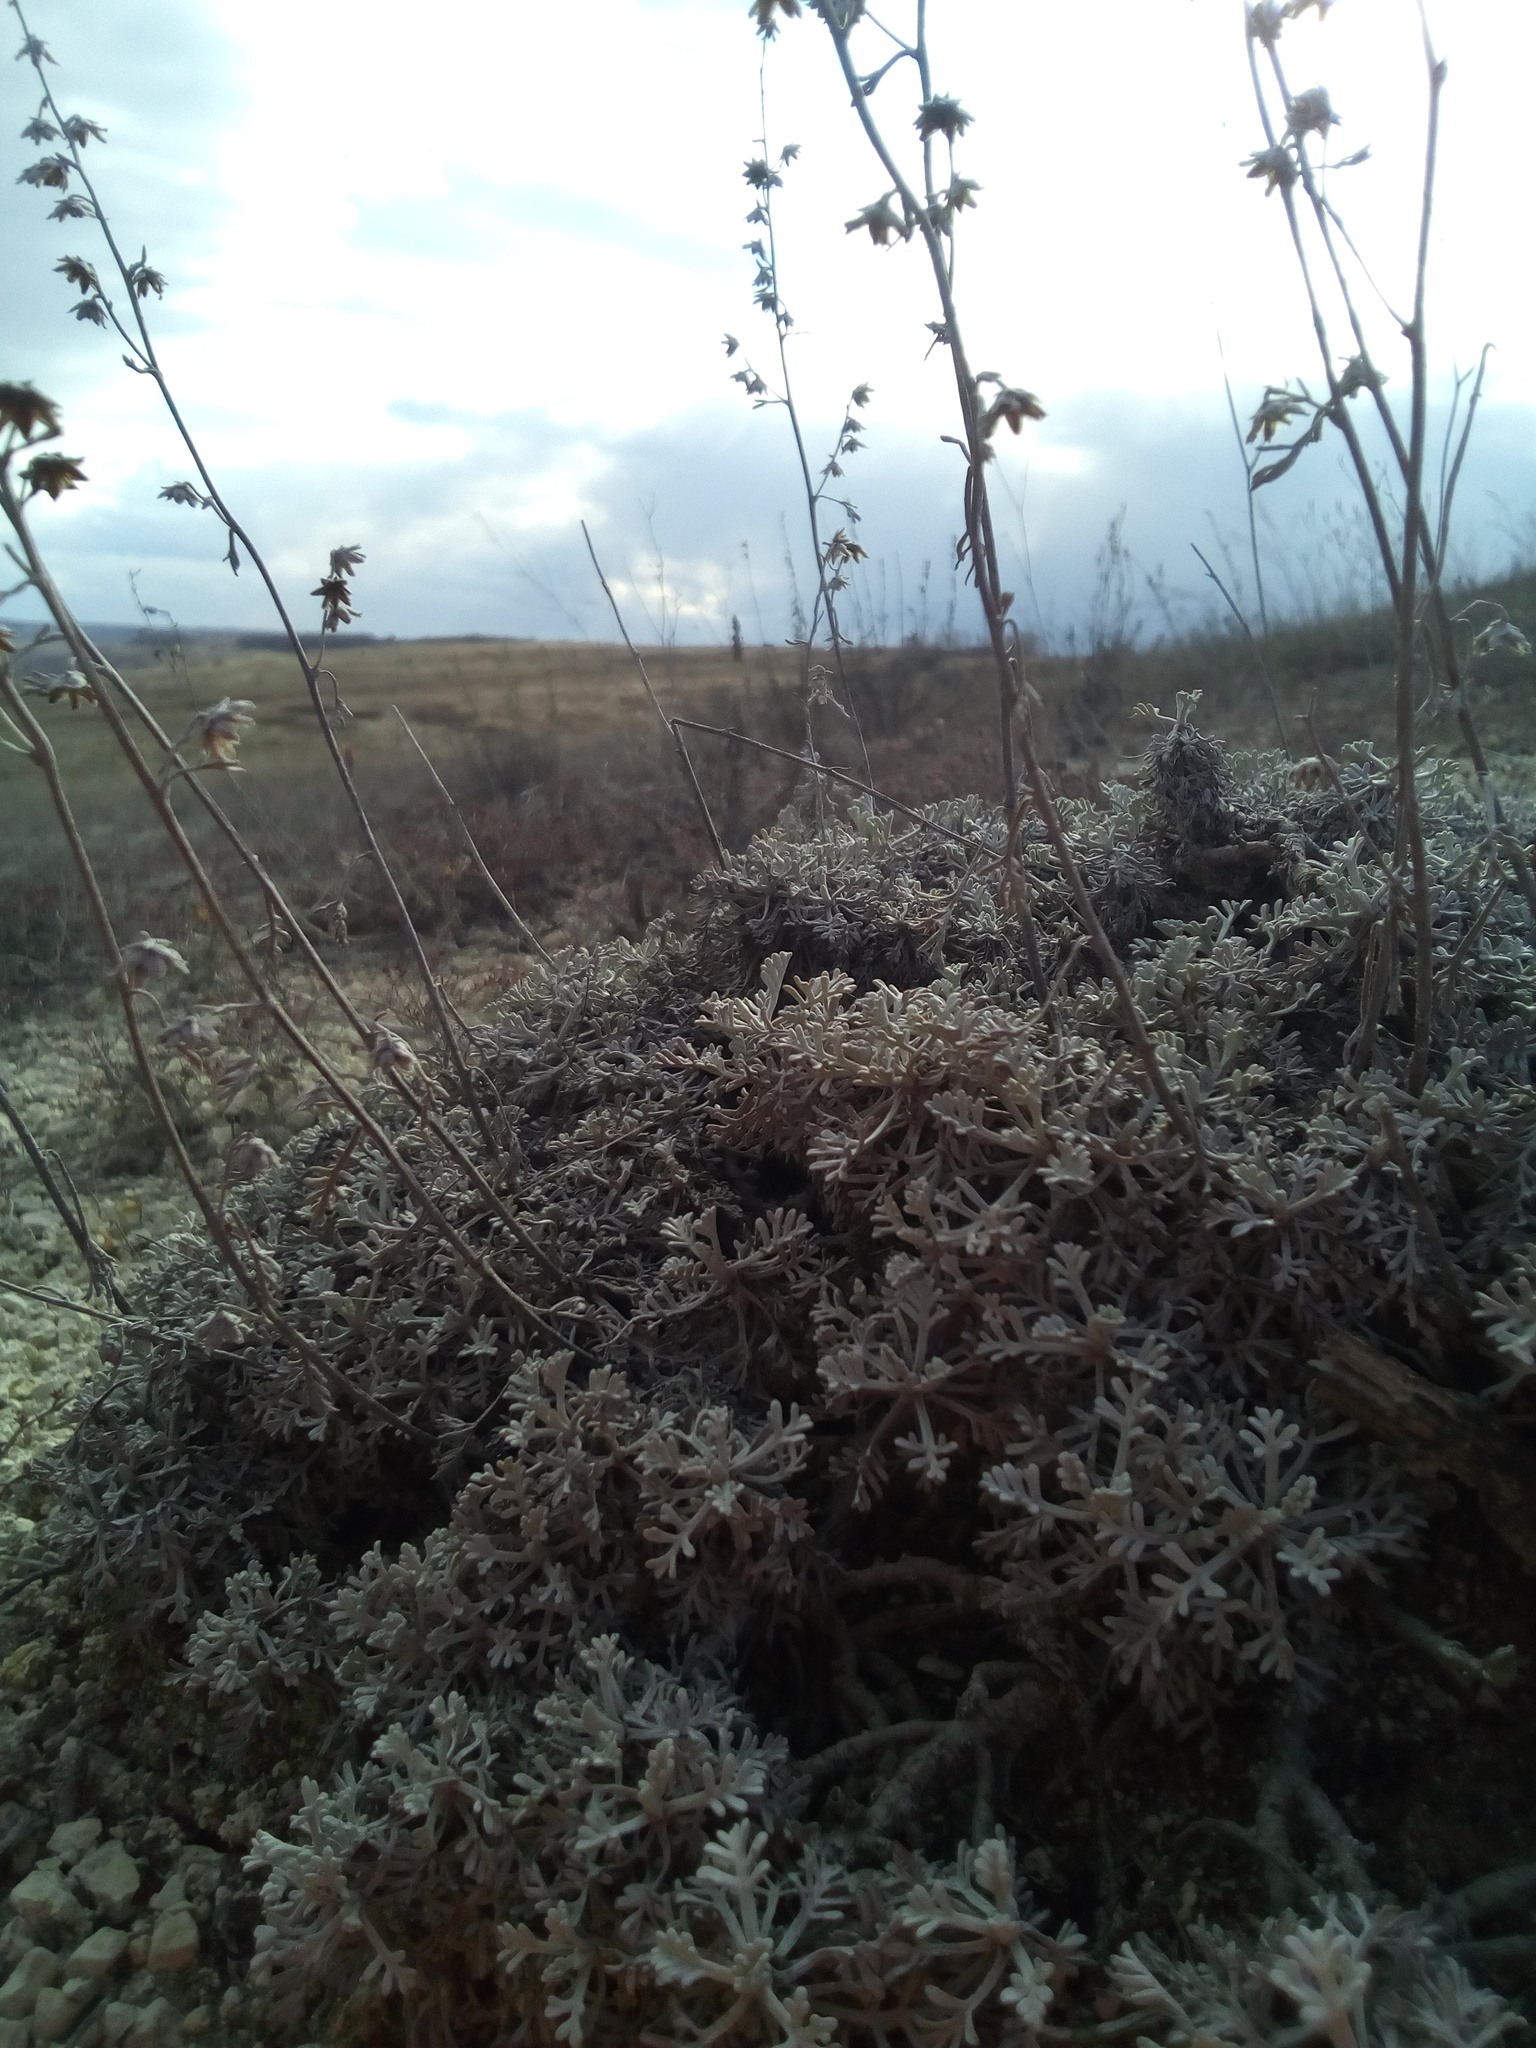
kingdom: Plantae
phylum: Tracheophyta
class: Magnoliopsida
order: Asterales
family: Asteraceae
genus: Artemisia
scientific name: Artemisia hololeuca
